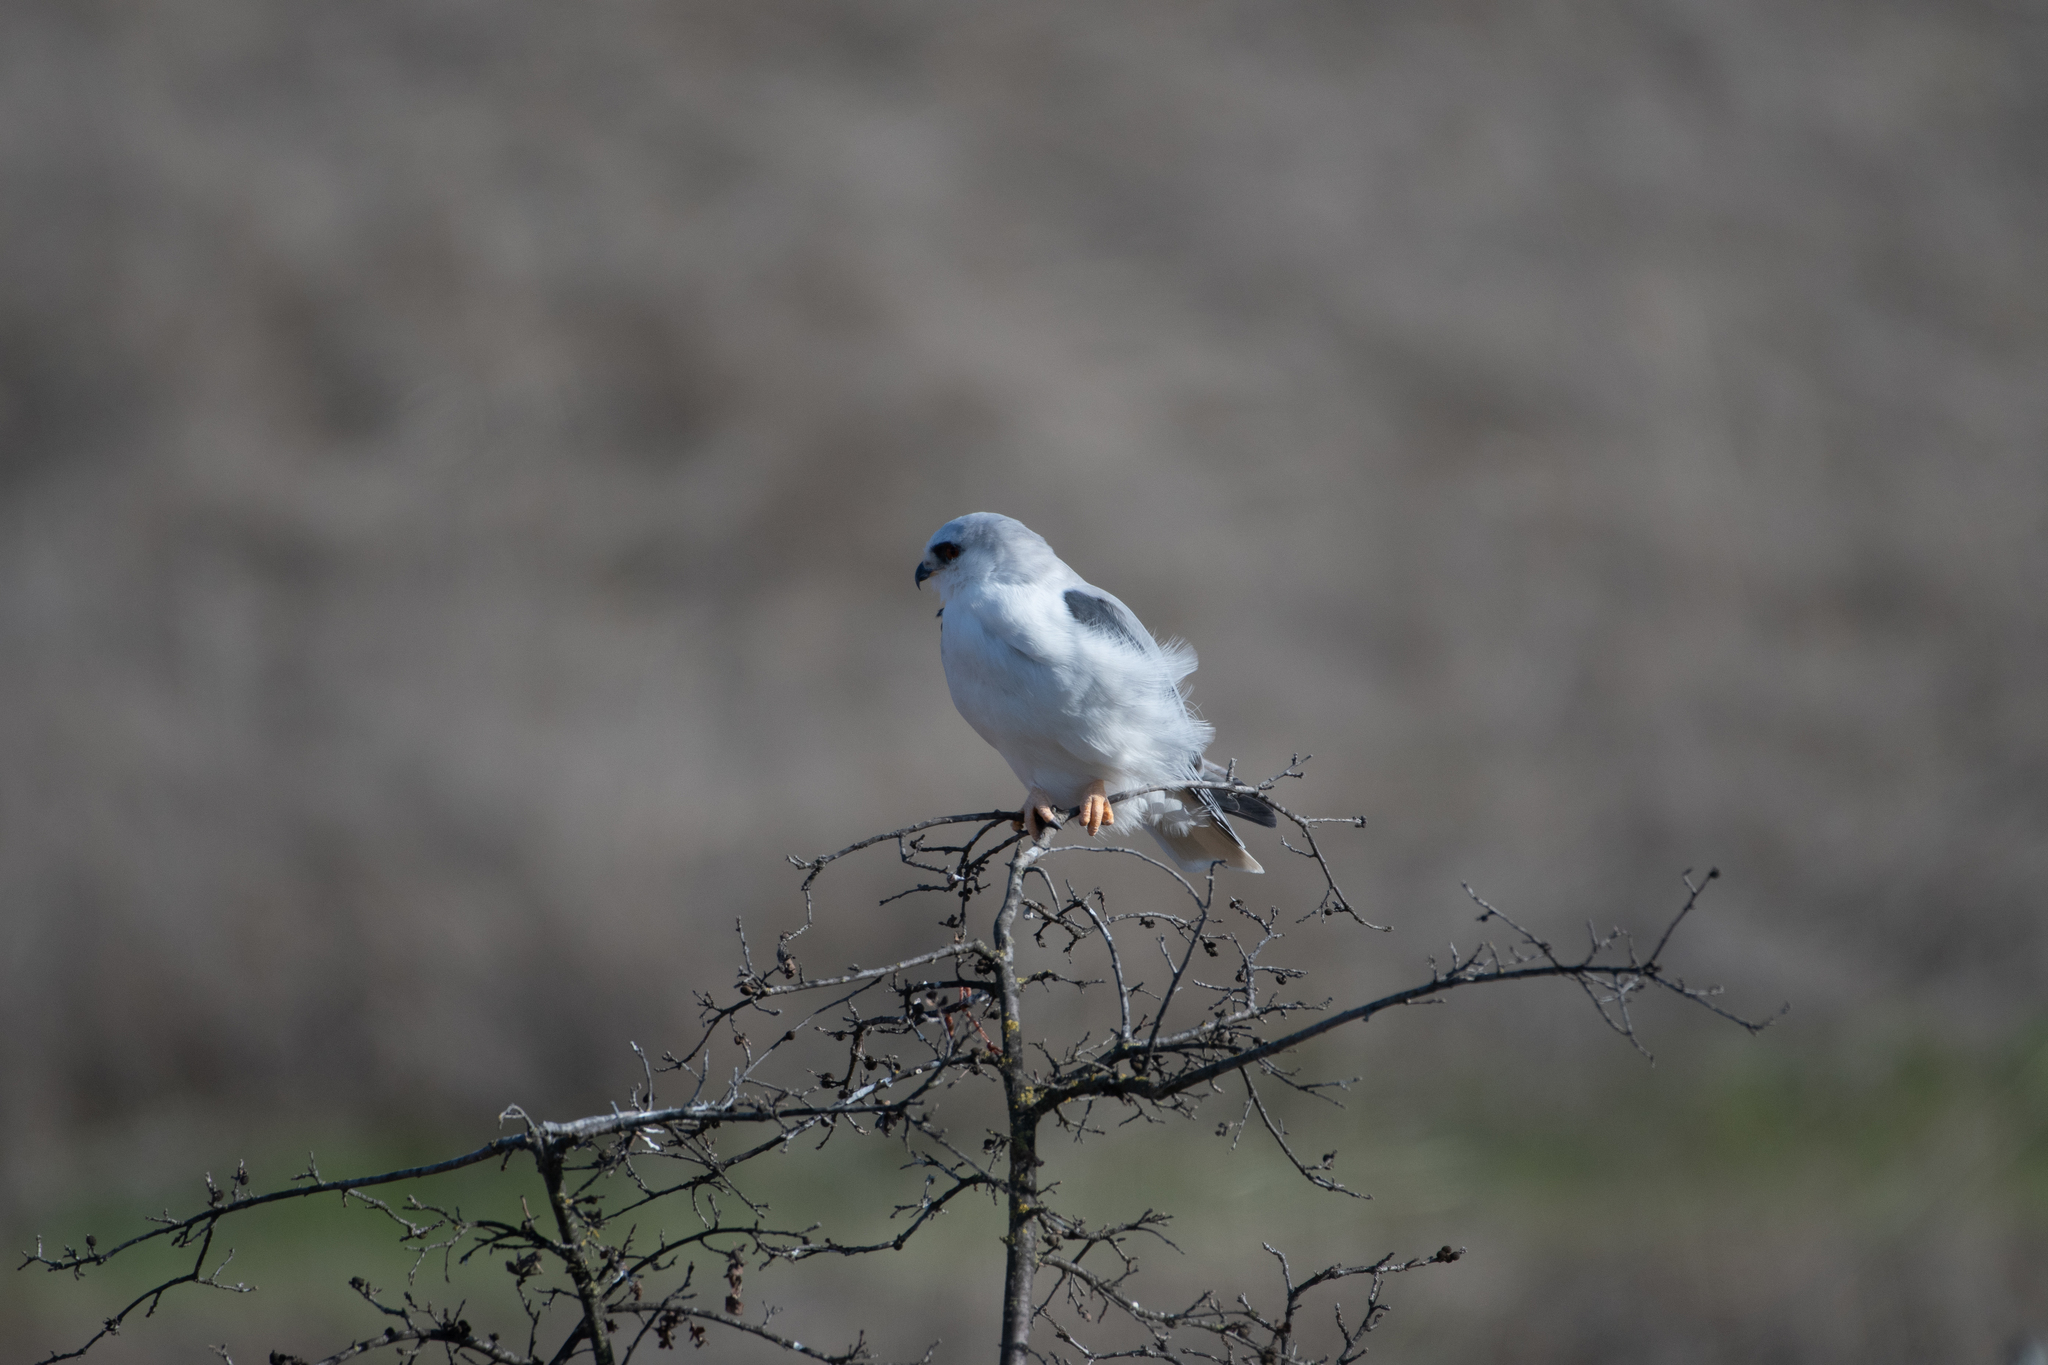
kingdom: Animalia
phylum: Chordata
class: Aves
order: Accipitriformes
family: Accipitridae
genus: Elanus
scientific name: Elanus leucurus
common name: White-tailed kite
